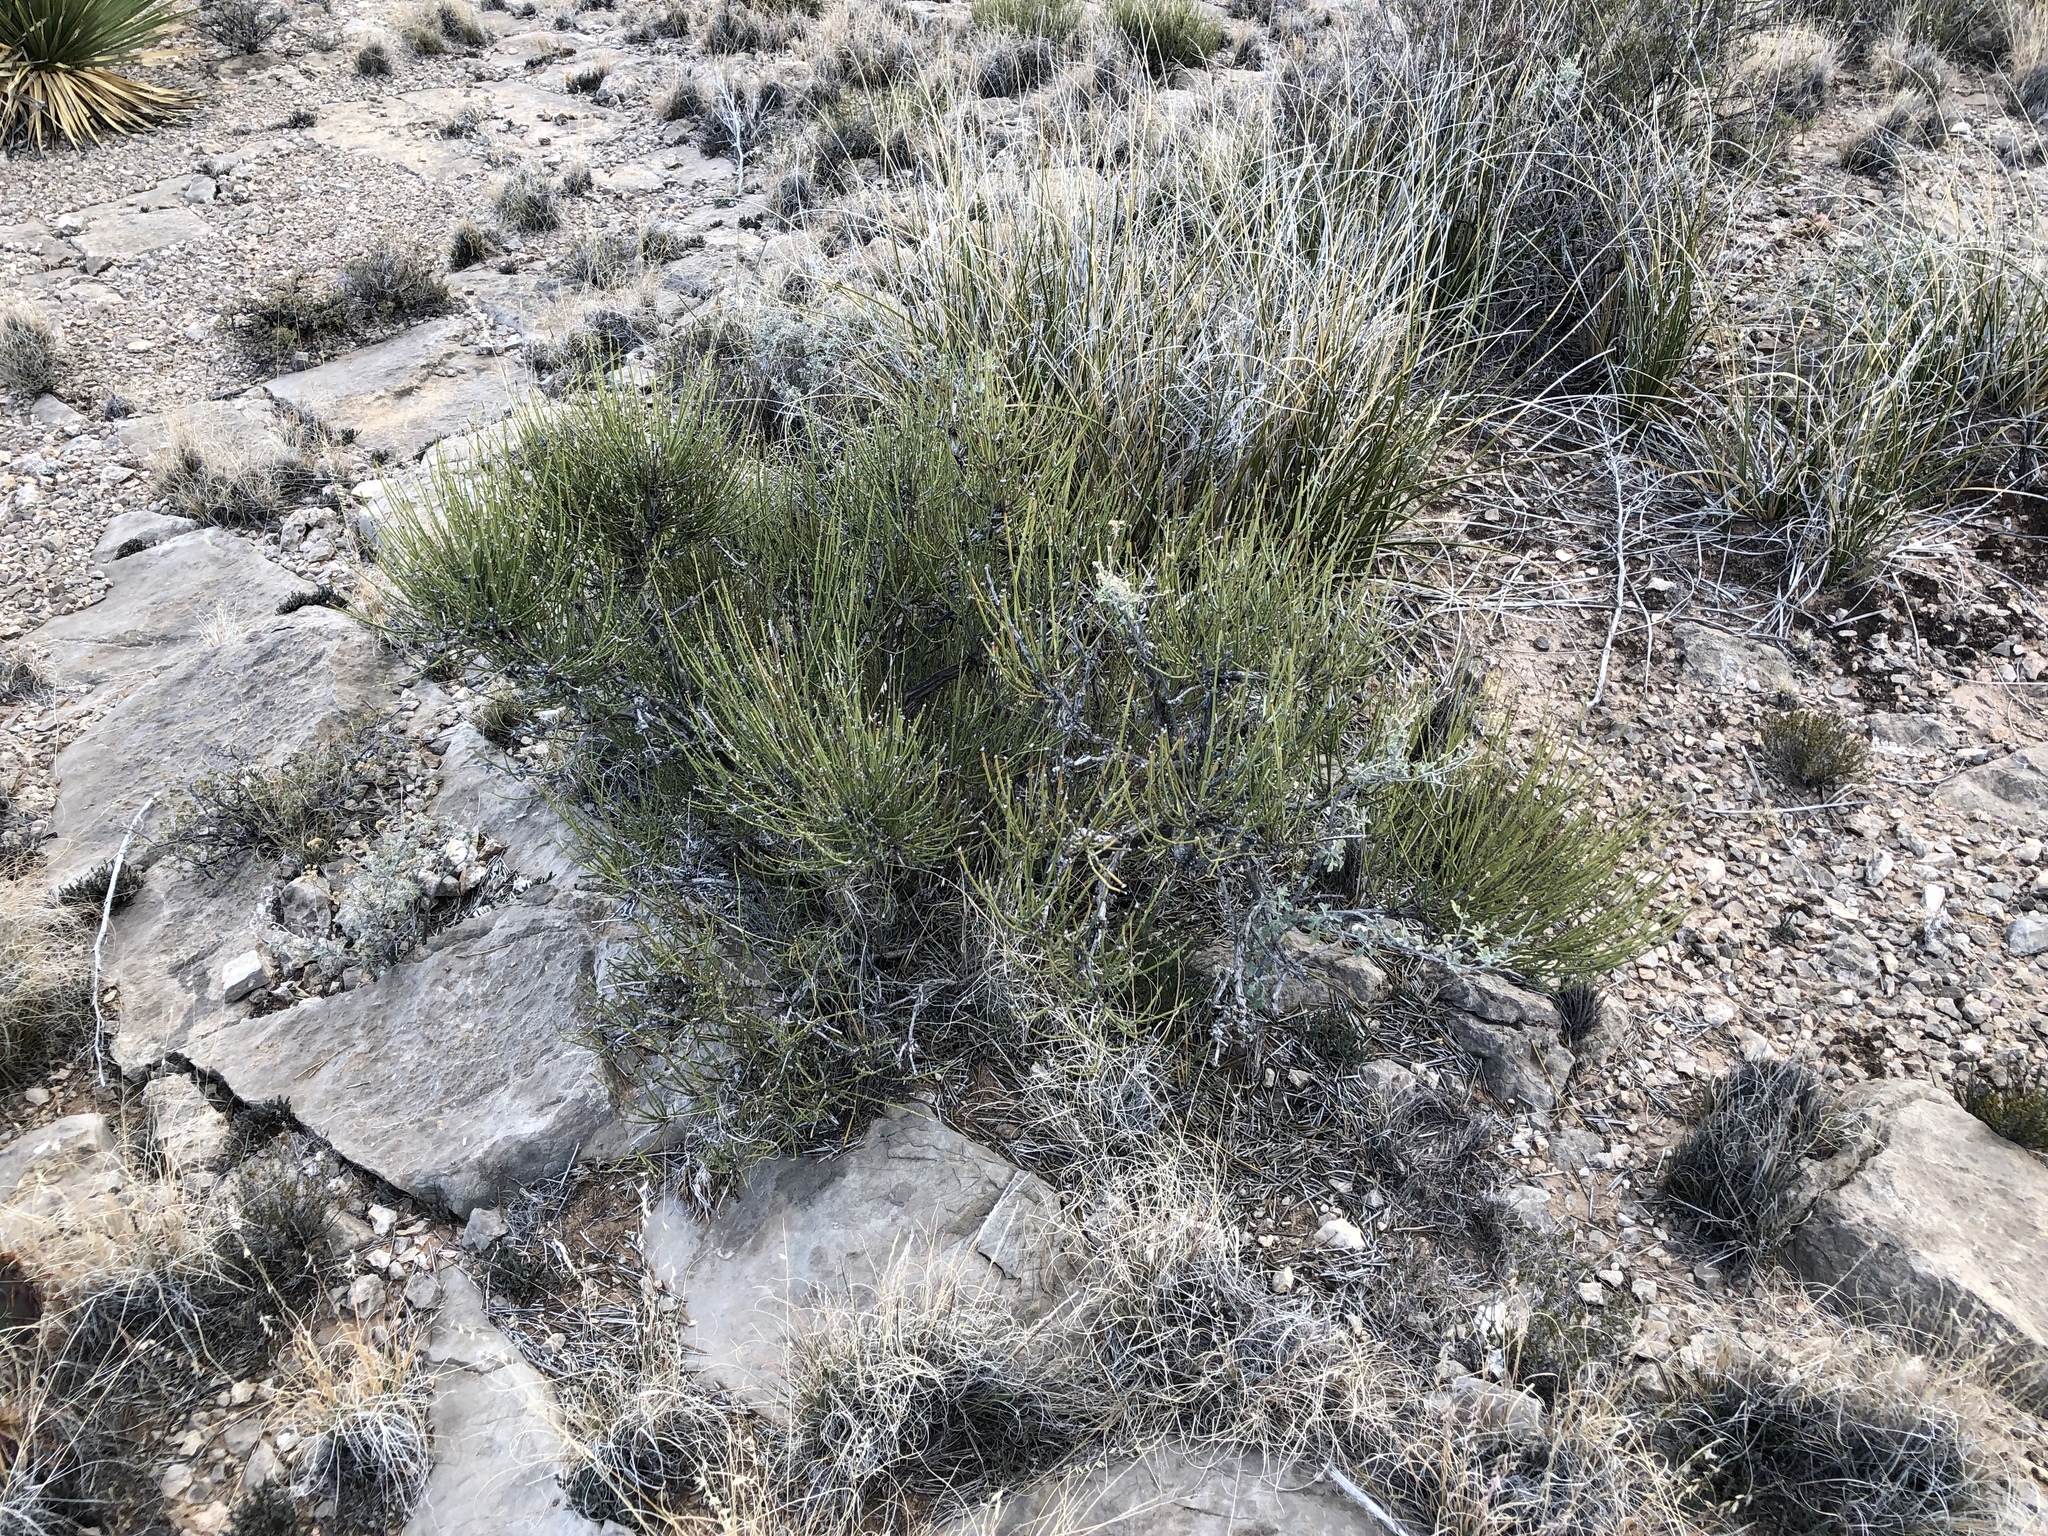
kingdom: Plantae
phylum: Tracheophyta
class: Gnetopsida
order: Ephedrales
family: Ephedraceae
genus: Ephedra
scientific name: Ephedra aspera
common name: Boundary ephedra
